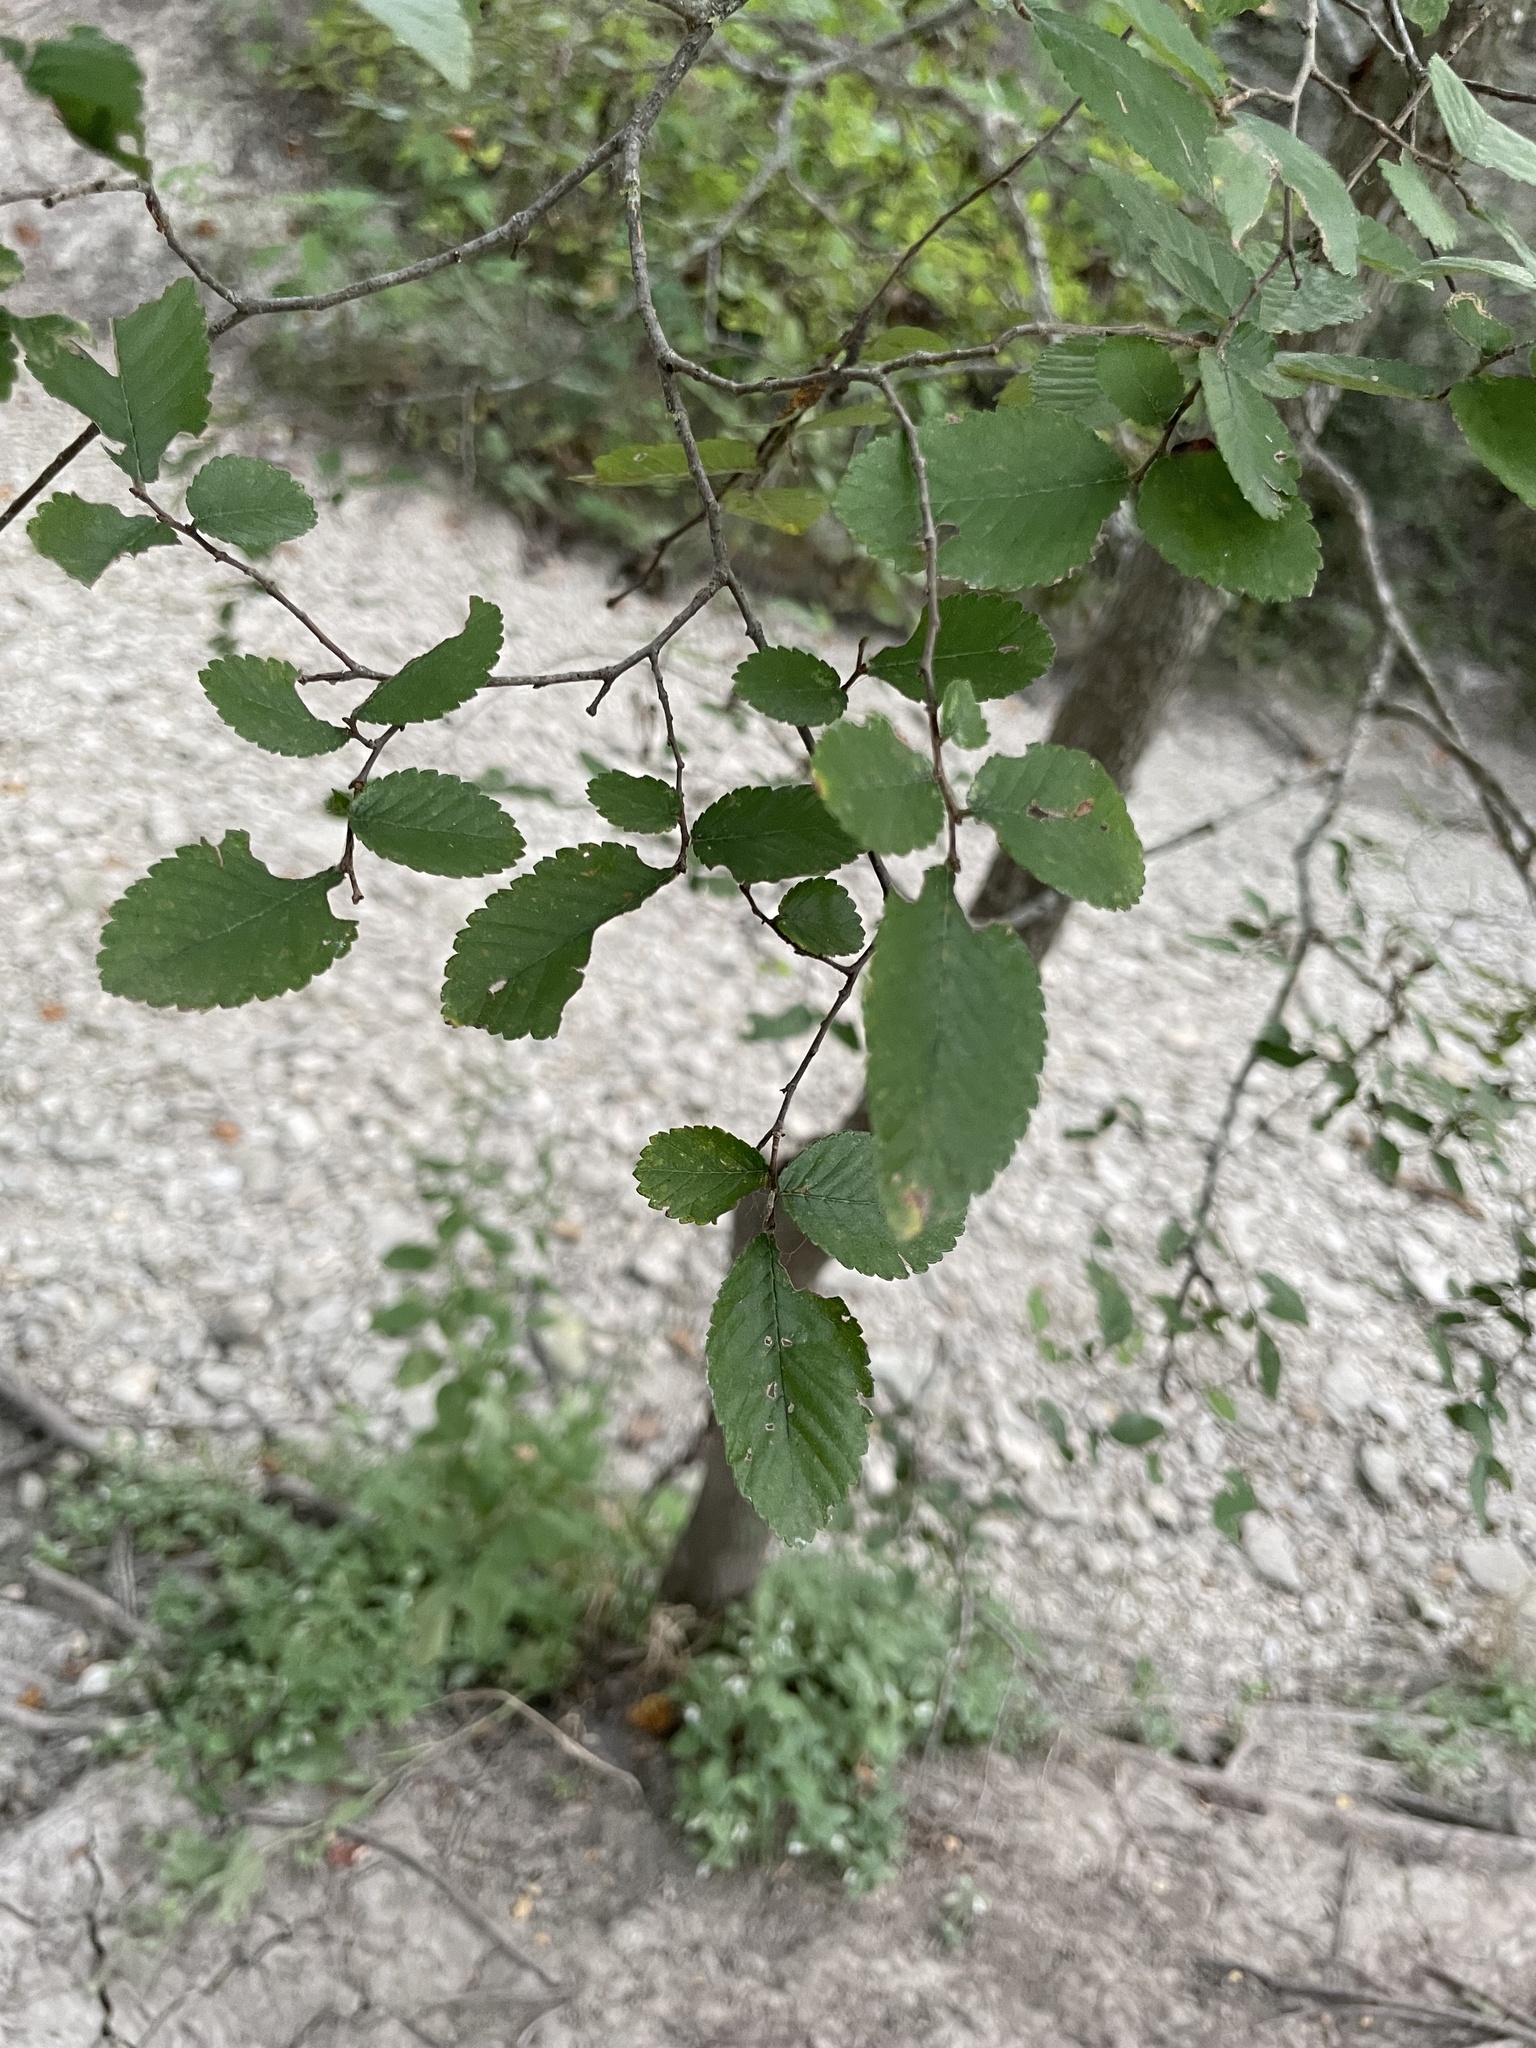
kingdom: Plantae
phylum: Tracheophyta
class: Magnoliopsida
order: Rosales
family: Ulmaceae
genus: Ulmus
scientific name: Ulmus crassifolia
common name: Basket elm
